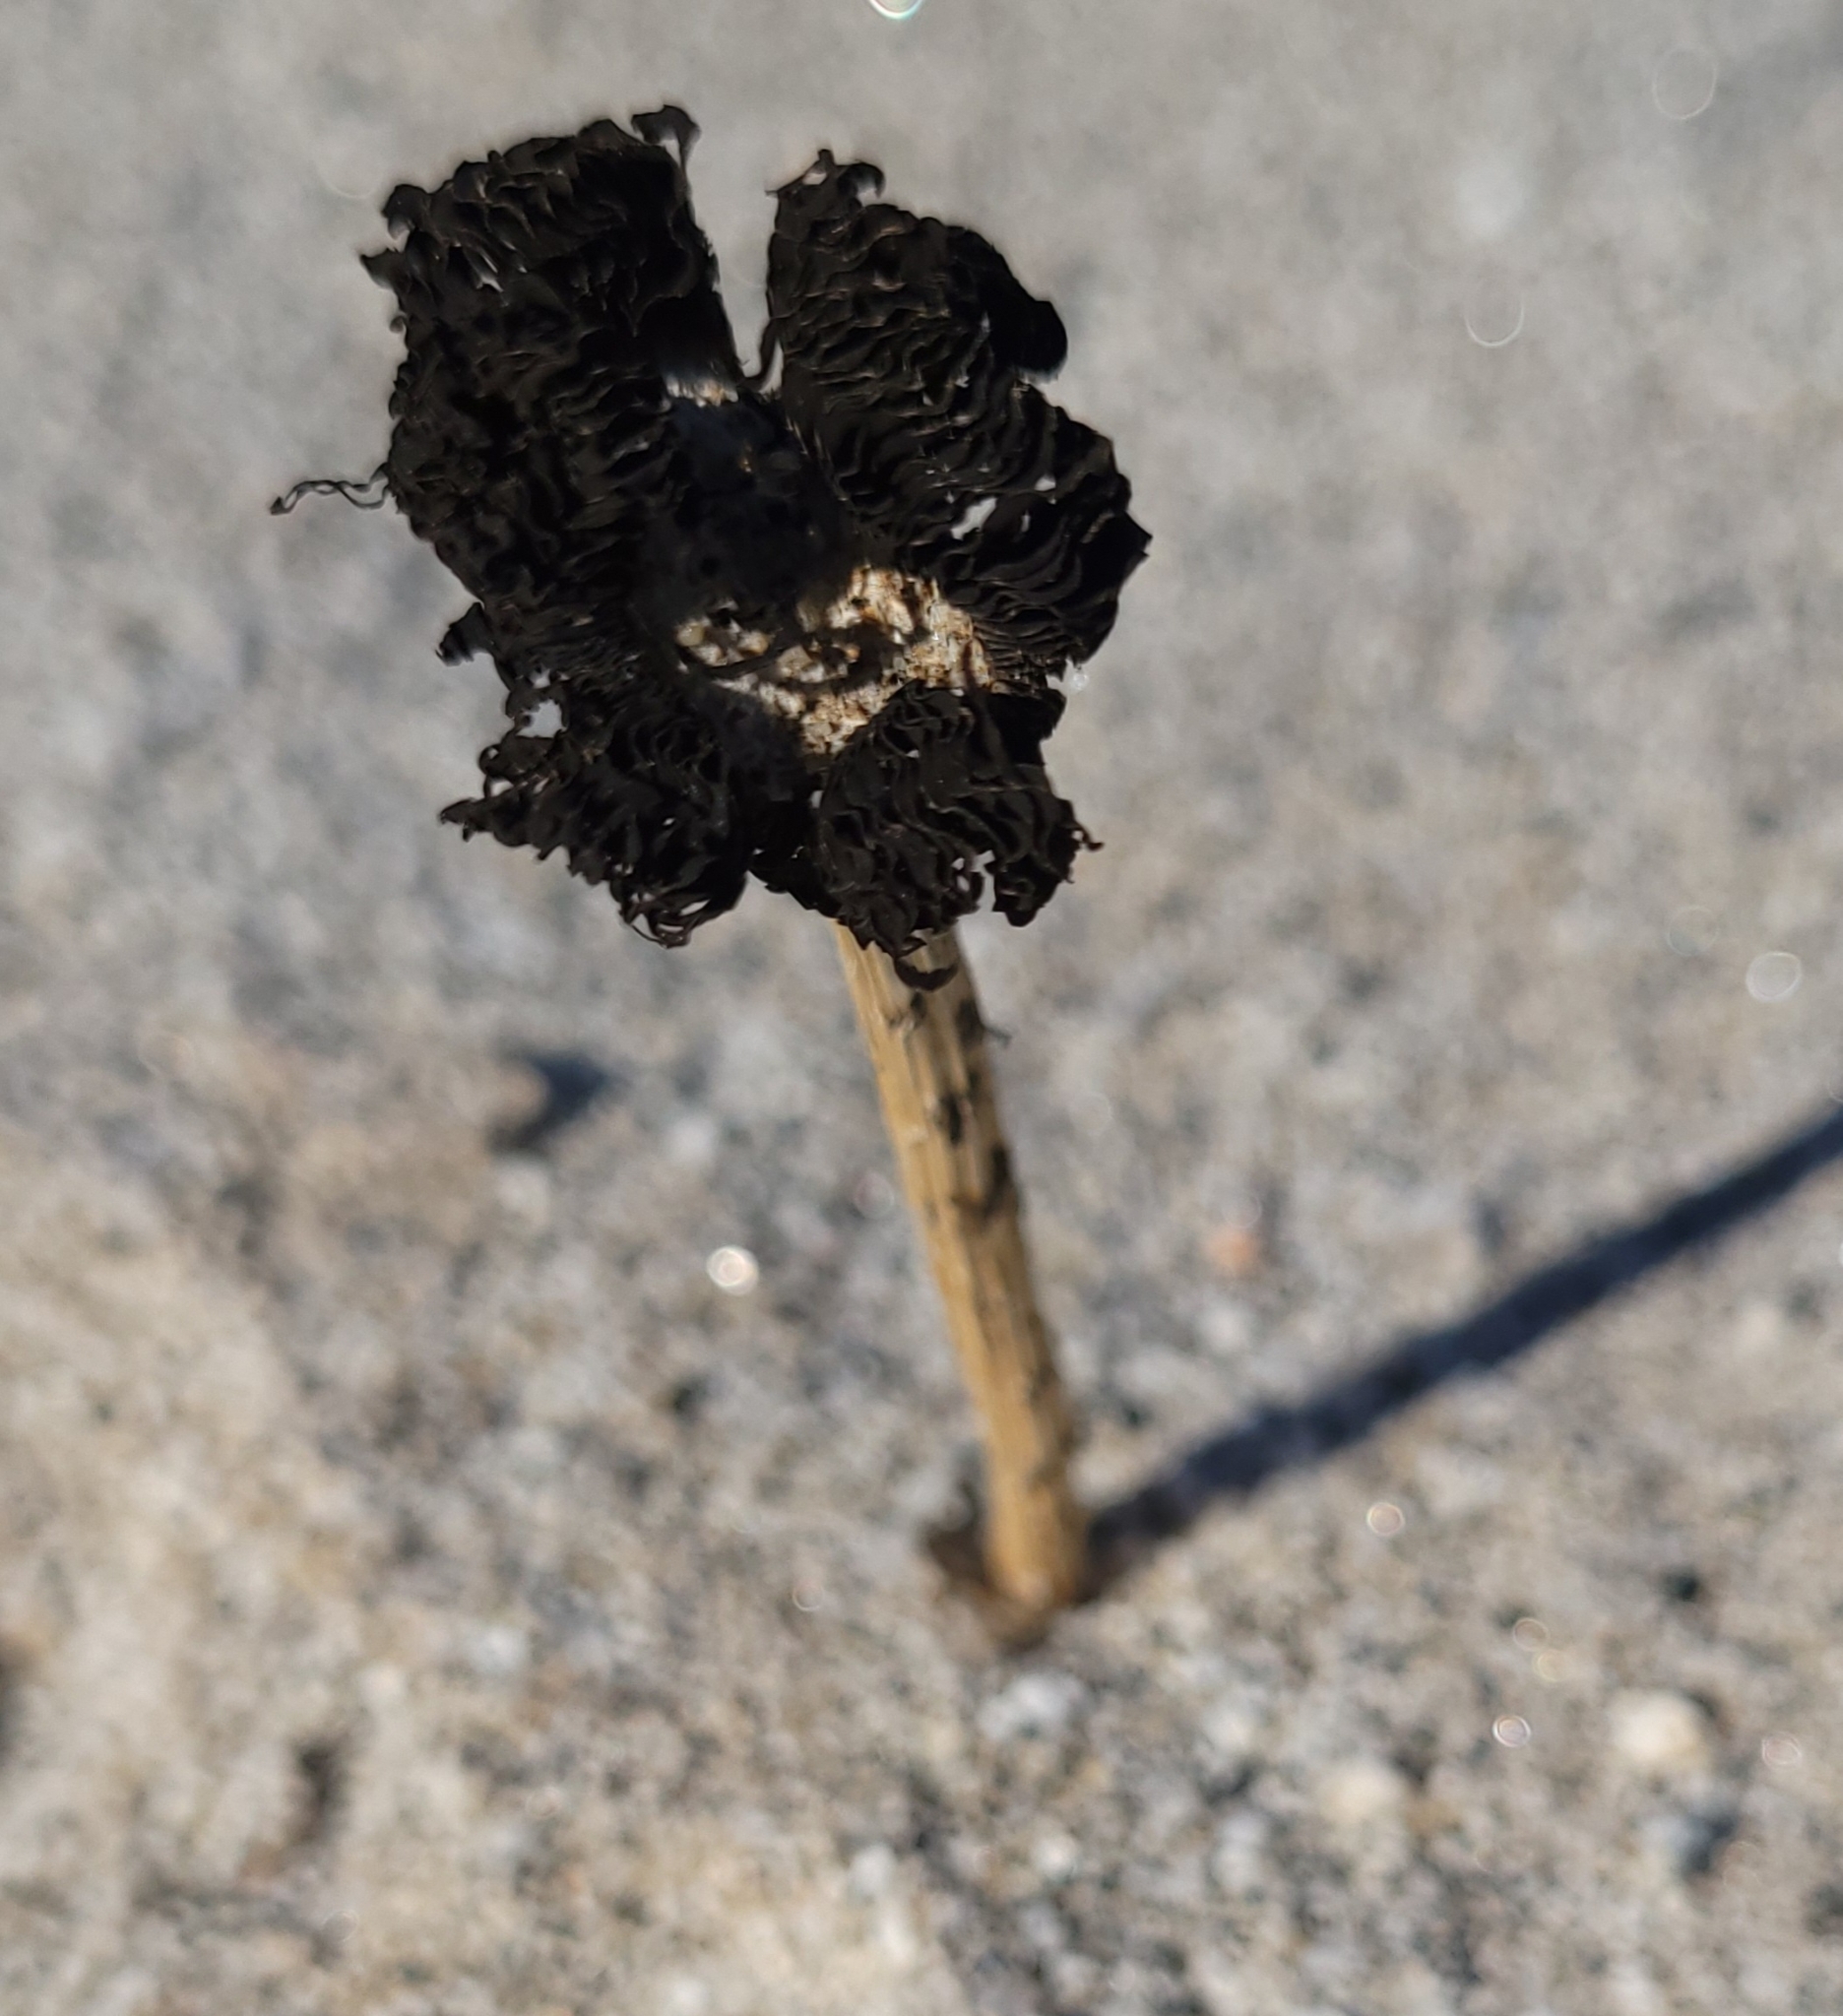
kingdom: Fungi
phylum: Basidiomycota
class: Agaricomycetes
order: Agaricales
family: Agaricaceae
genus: Montagnea
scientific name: Montagnea arenaria
